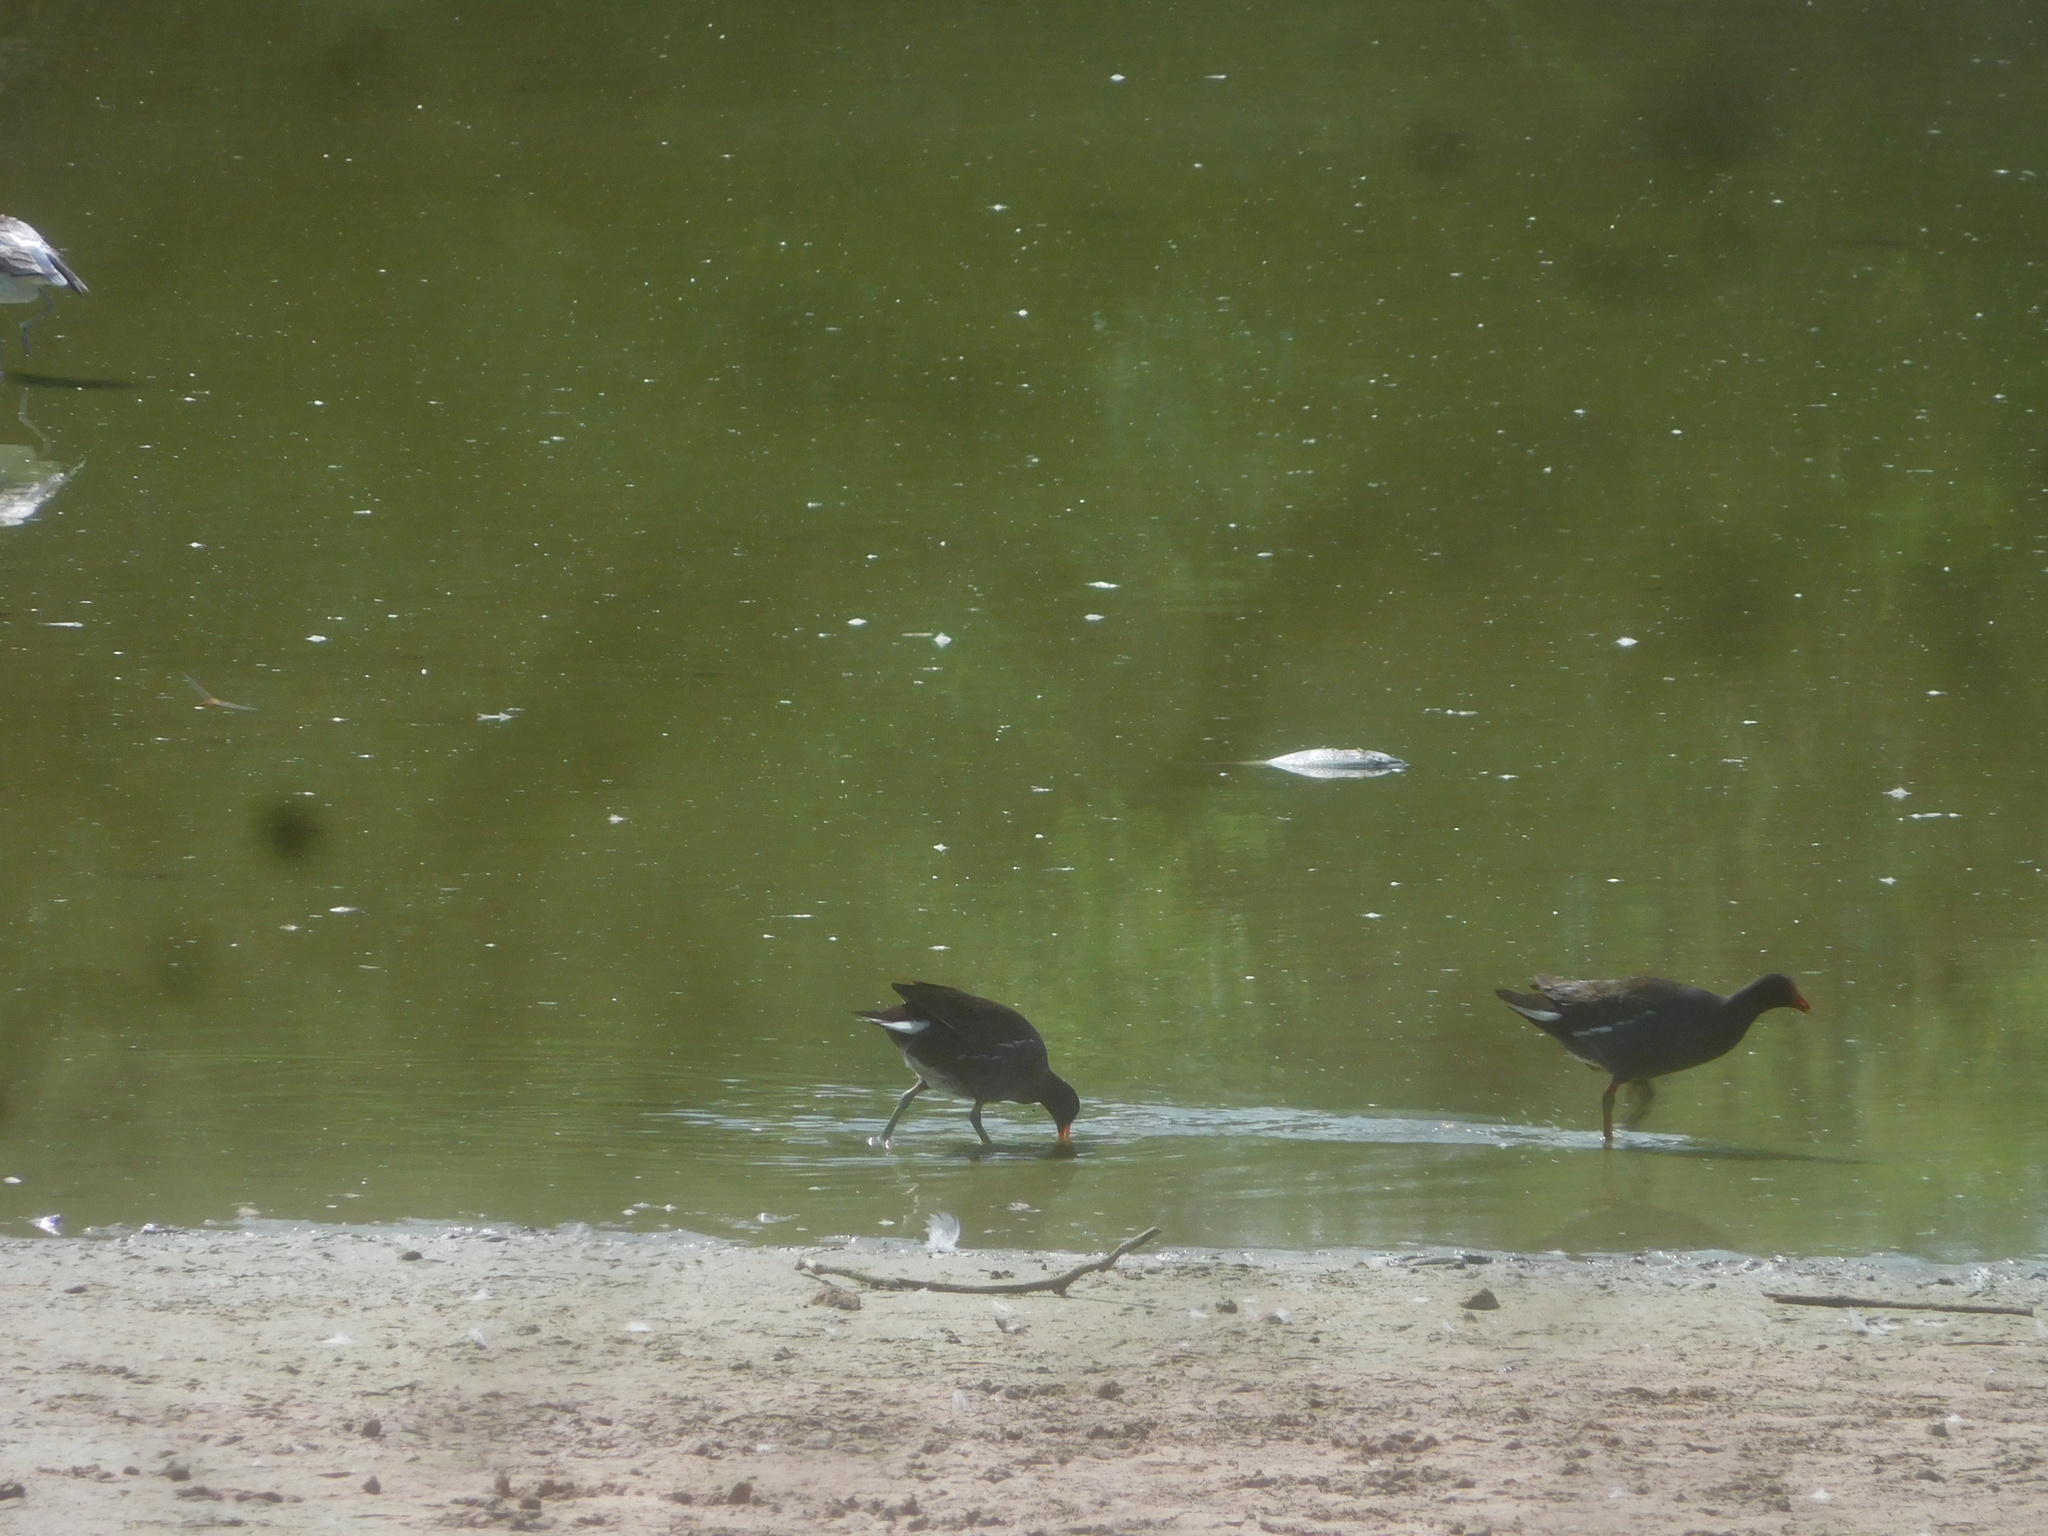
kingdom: Animalia
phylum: Chordata
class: Aves
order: Gruiformes
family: Rallidae
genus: Gallinula
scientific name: Gallinula chloropus
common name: Common moorhen
